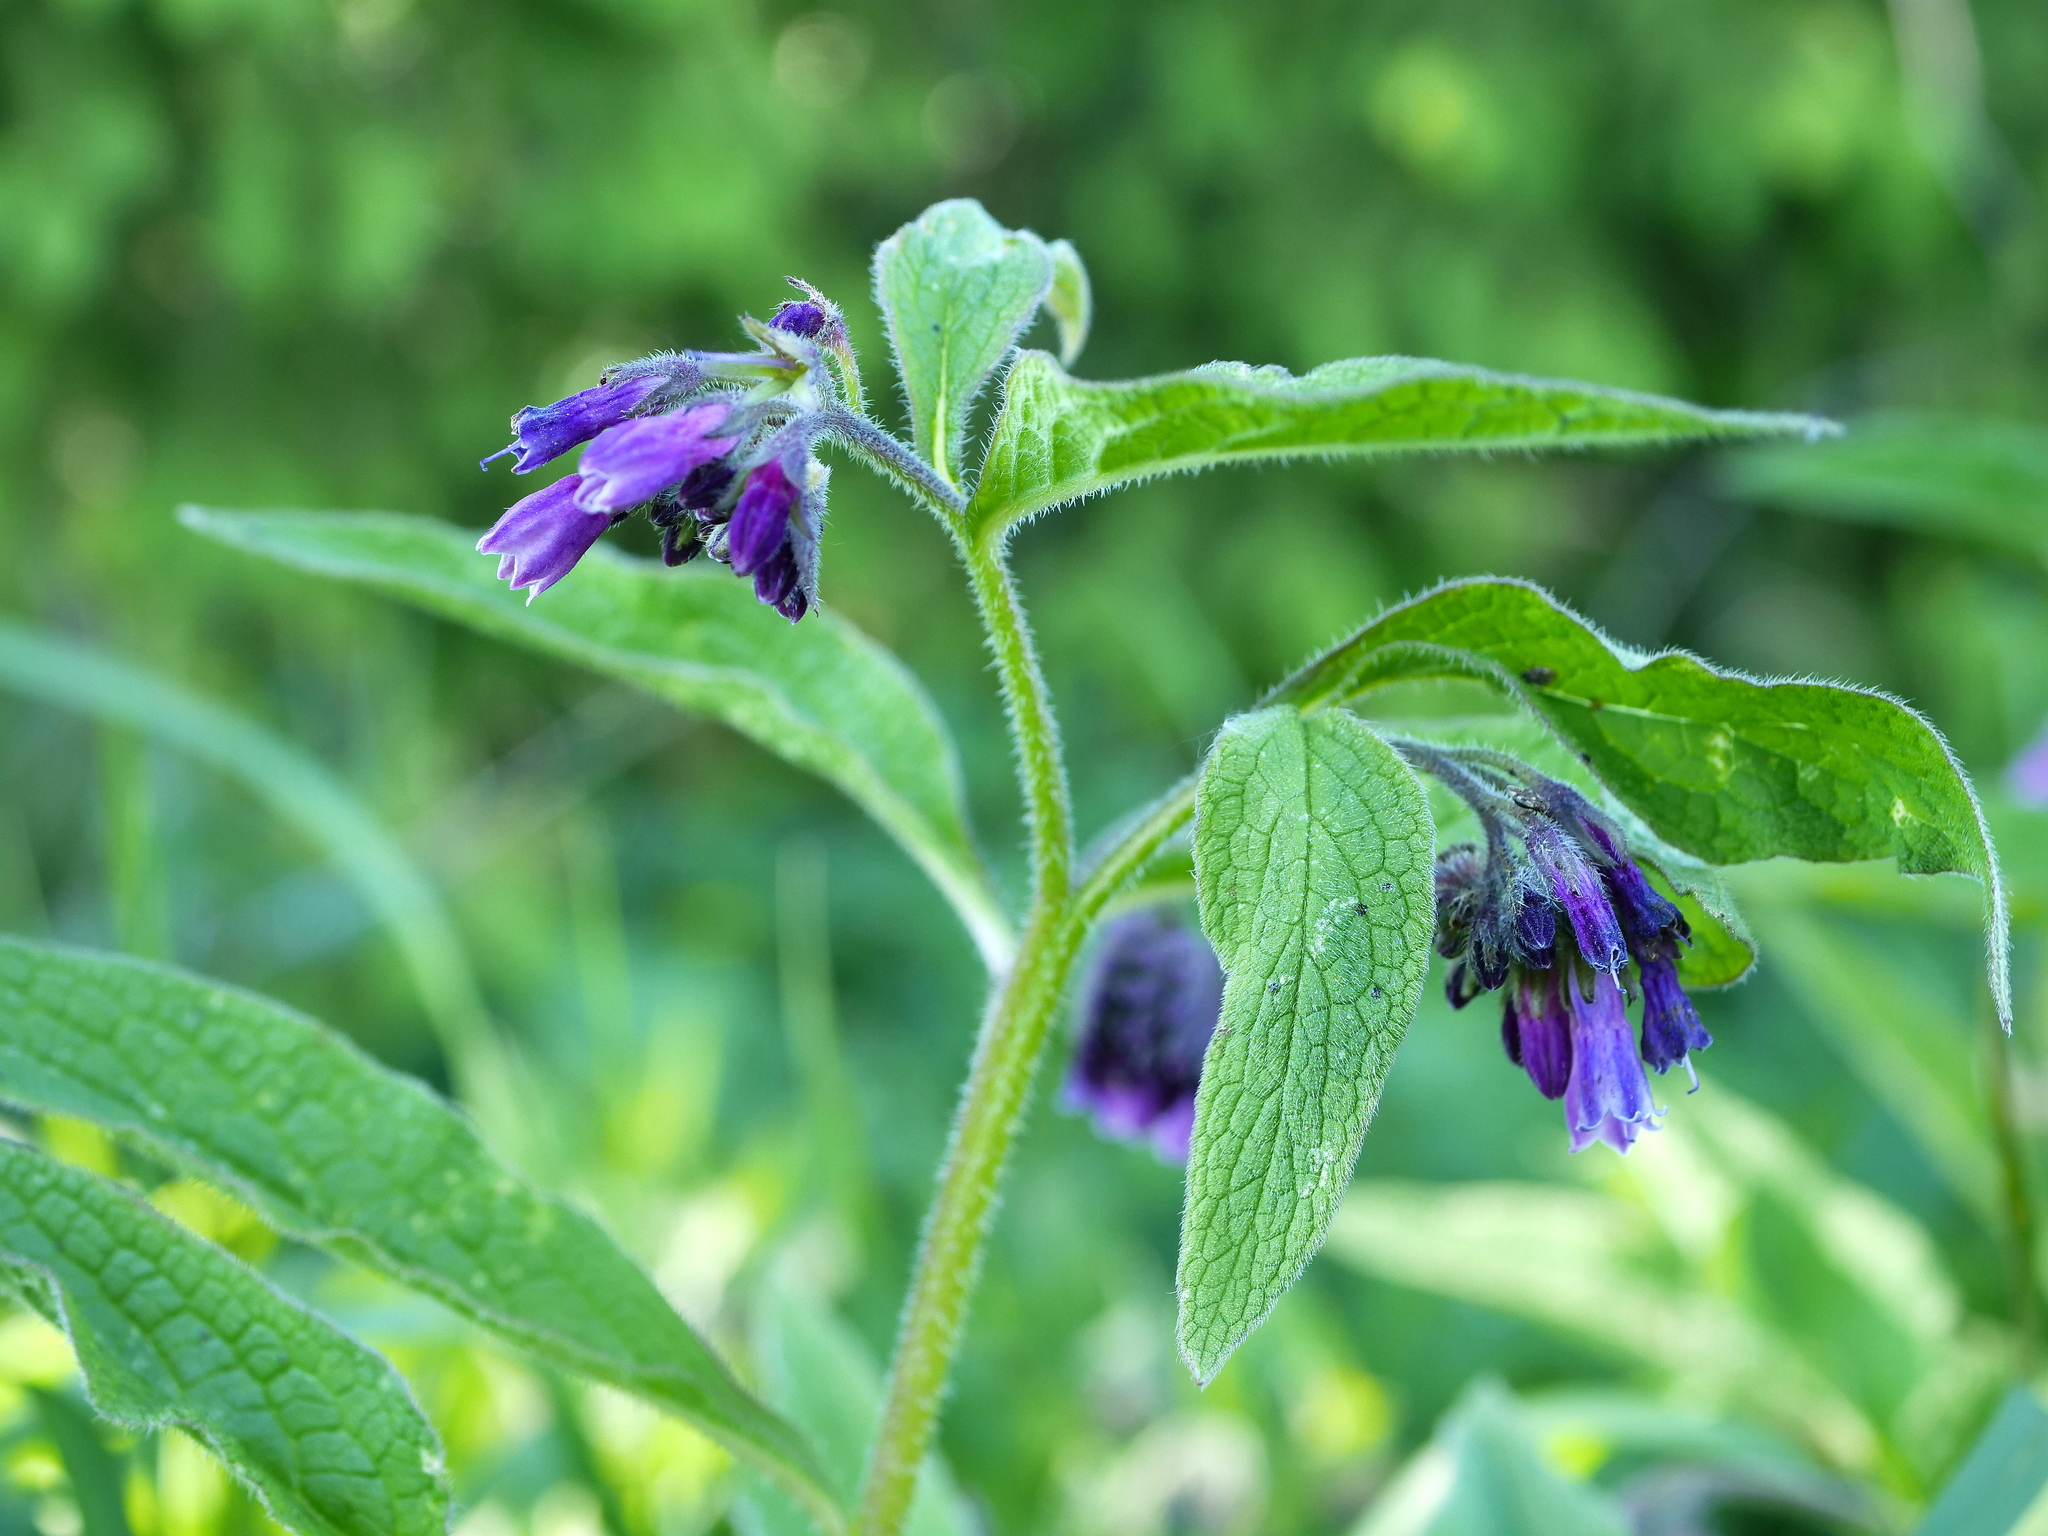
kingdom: Plantae
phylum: Tracheophyta
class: Magnoliopsida
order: Boraginales
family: Boraginaceae
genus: Symphytum
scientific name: Symphytum uplandicum
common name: Russian comfrey
